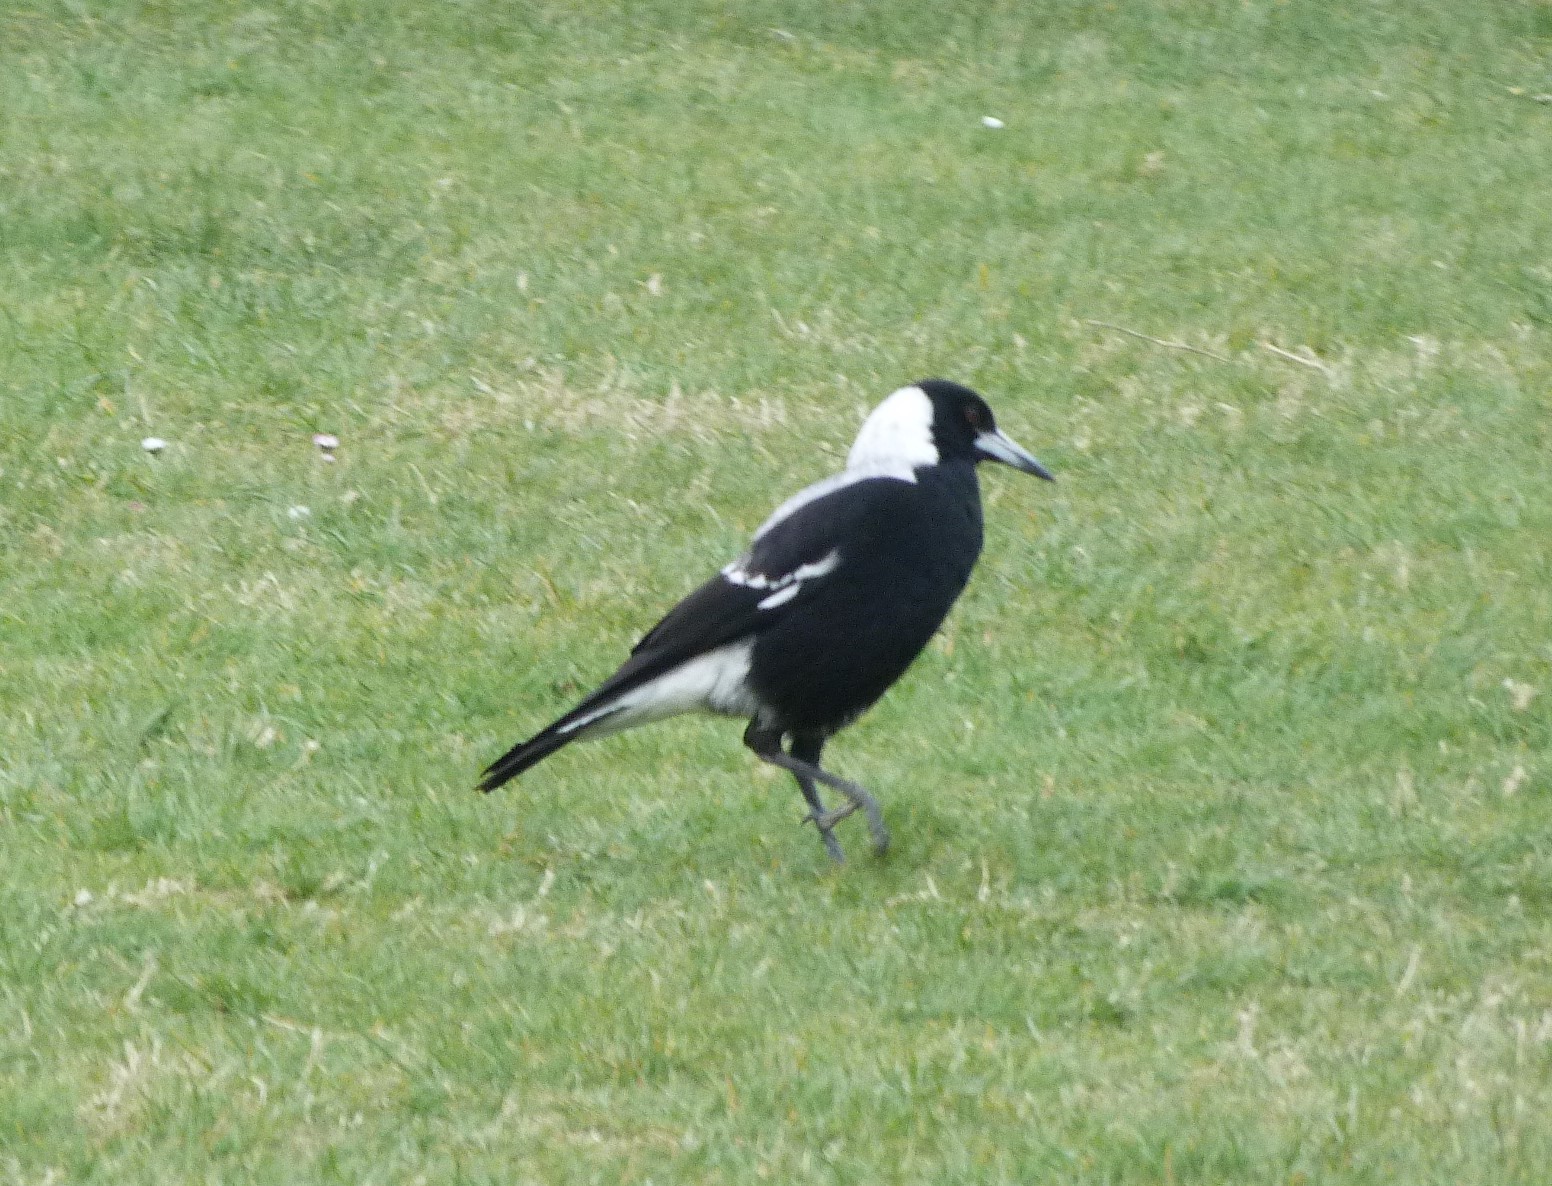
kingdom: Animalia
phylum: Chordata
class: Aves
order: Passeriformes
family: Cracticidae
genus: Gymnorhina
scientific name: Gymnorhina tibicen
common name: Australian magpie
